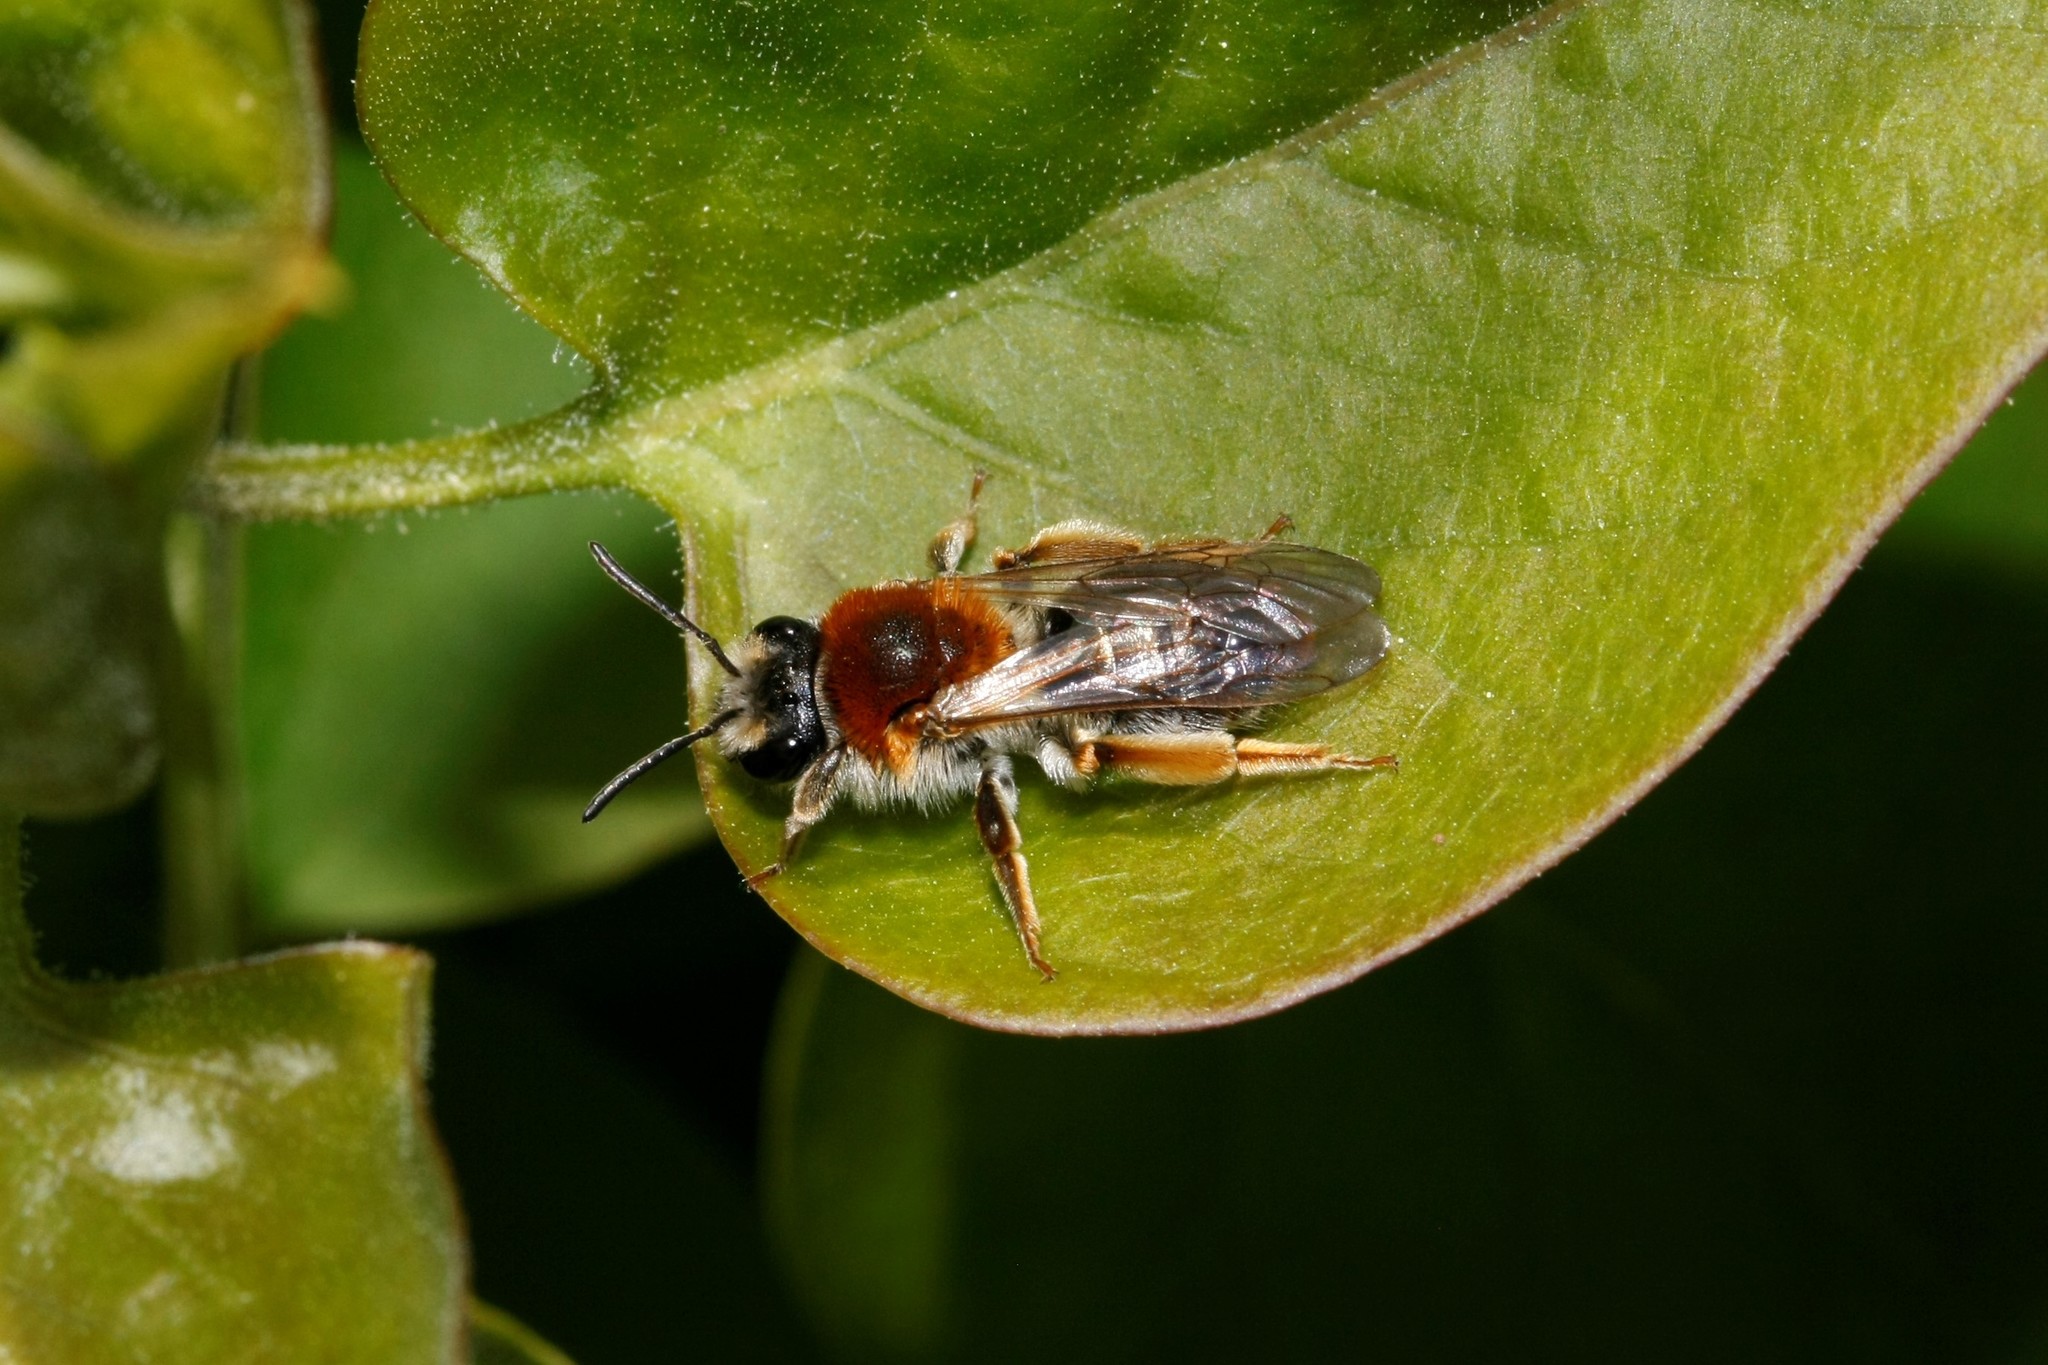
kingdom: Animalia
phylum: Arthropoda
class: Insecta
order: Hymenoptera
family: Andrenidae
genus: Andrena
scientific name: Andrena haemorrhoa
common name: Early mining bee
